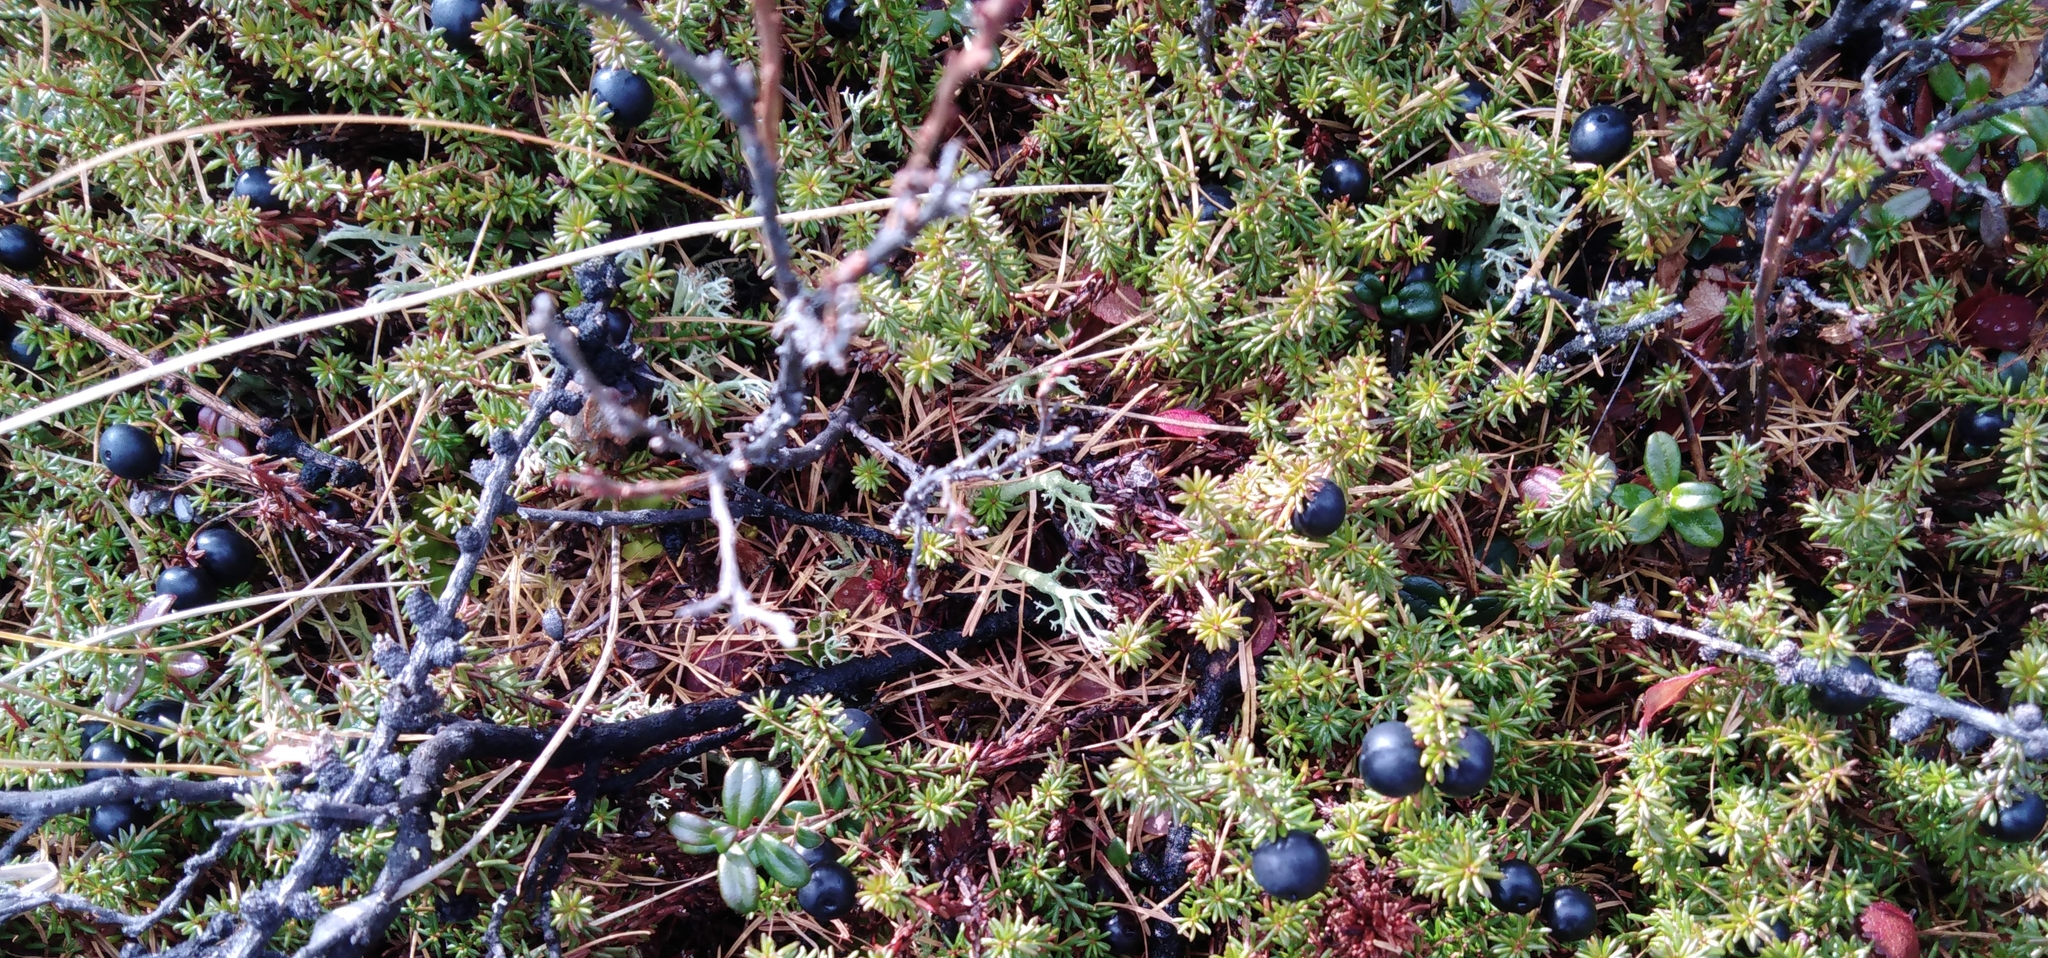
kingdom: Plantae
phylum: Tracheophyta
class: Magnoliopsida
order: Ericales
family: Ericaceae
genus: Empetrum
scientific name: Empetrum nigrum
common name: Black crowberry
